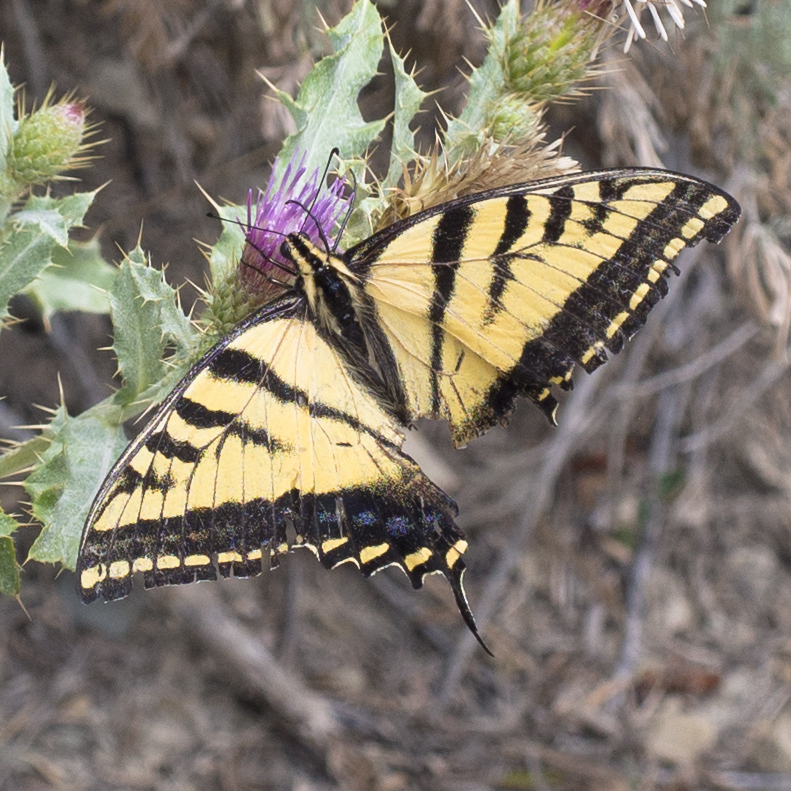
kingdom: Animalia
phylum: Arthropoda
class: Insecta
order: Lepidoptera
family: Papilionidae
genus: Papilio
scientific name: Papilio multicaudata
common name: Two-tailed tiger swallowtail
